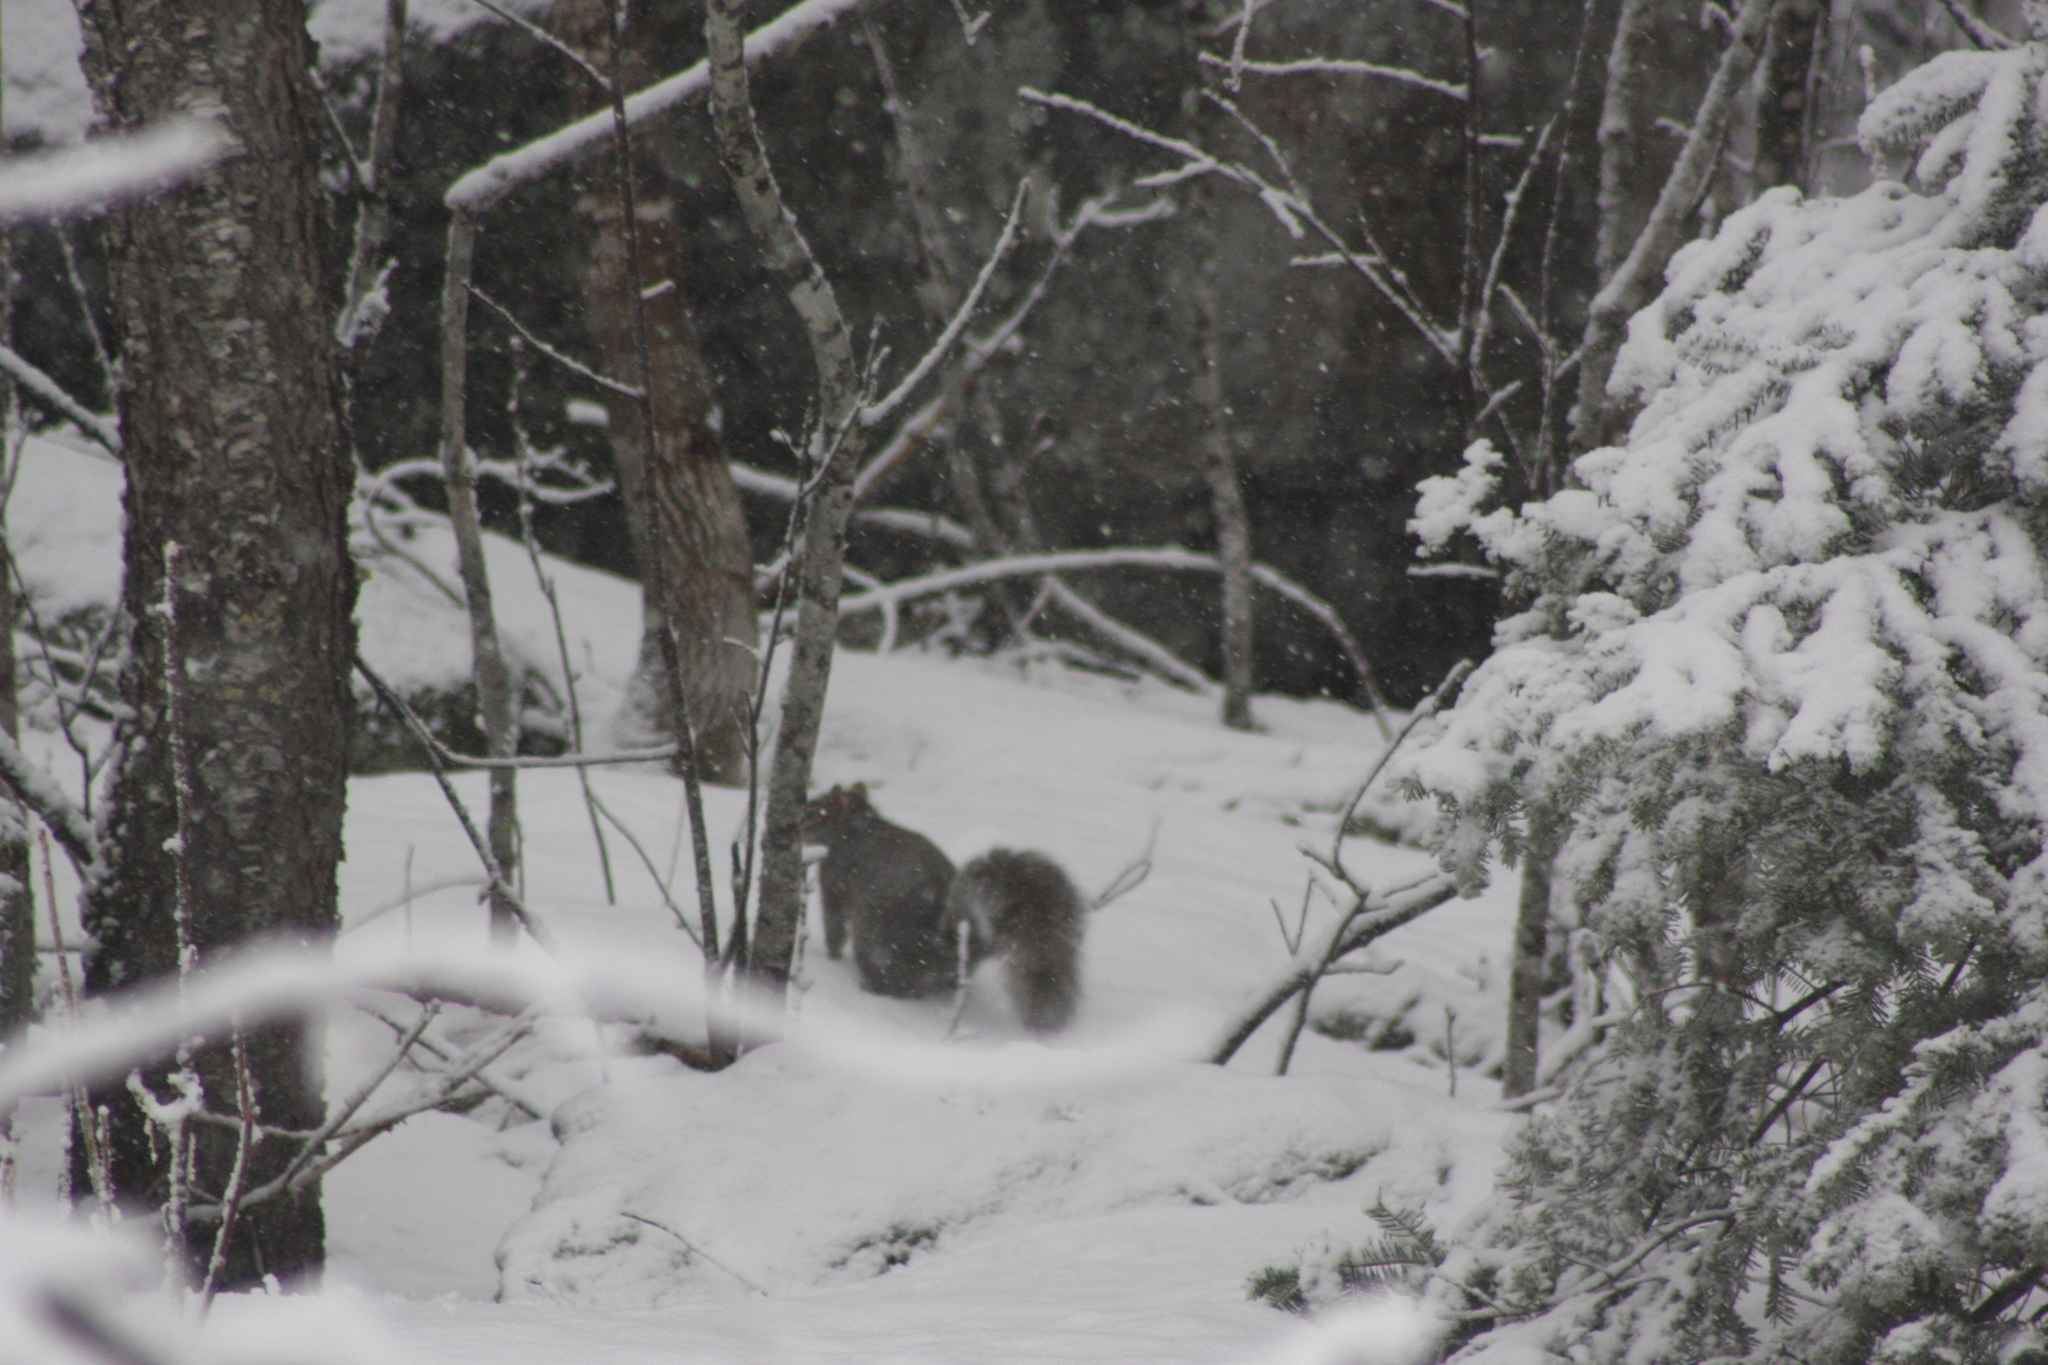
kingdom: Animalia
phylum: Chordata
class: Mammalia
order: Rodentia
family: Sciuridae
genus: Sciurus
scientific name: Sciurus carolinensis
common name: Eastern gray squirrel
